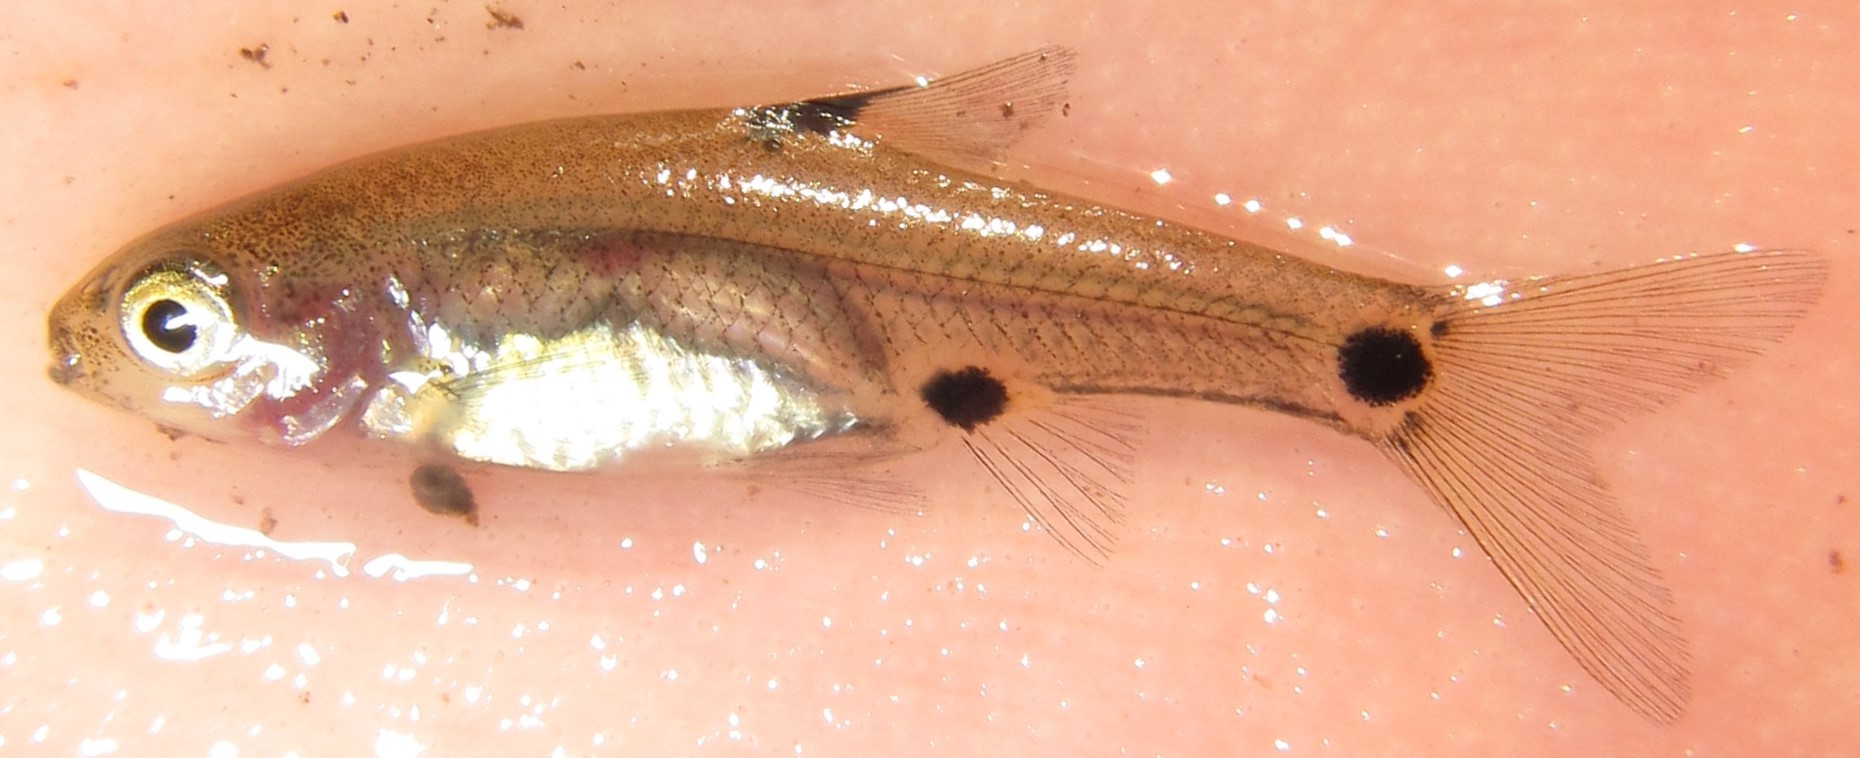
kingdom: Animalia
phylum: Chordata
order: Cypriniformes
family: Cyprinidae
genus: Enteromius
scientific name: Enteromius haasianus
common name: Sickle-fin barb
